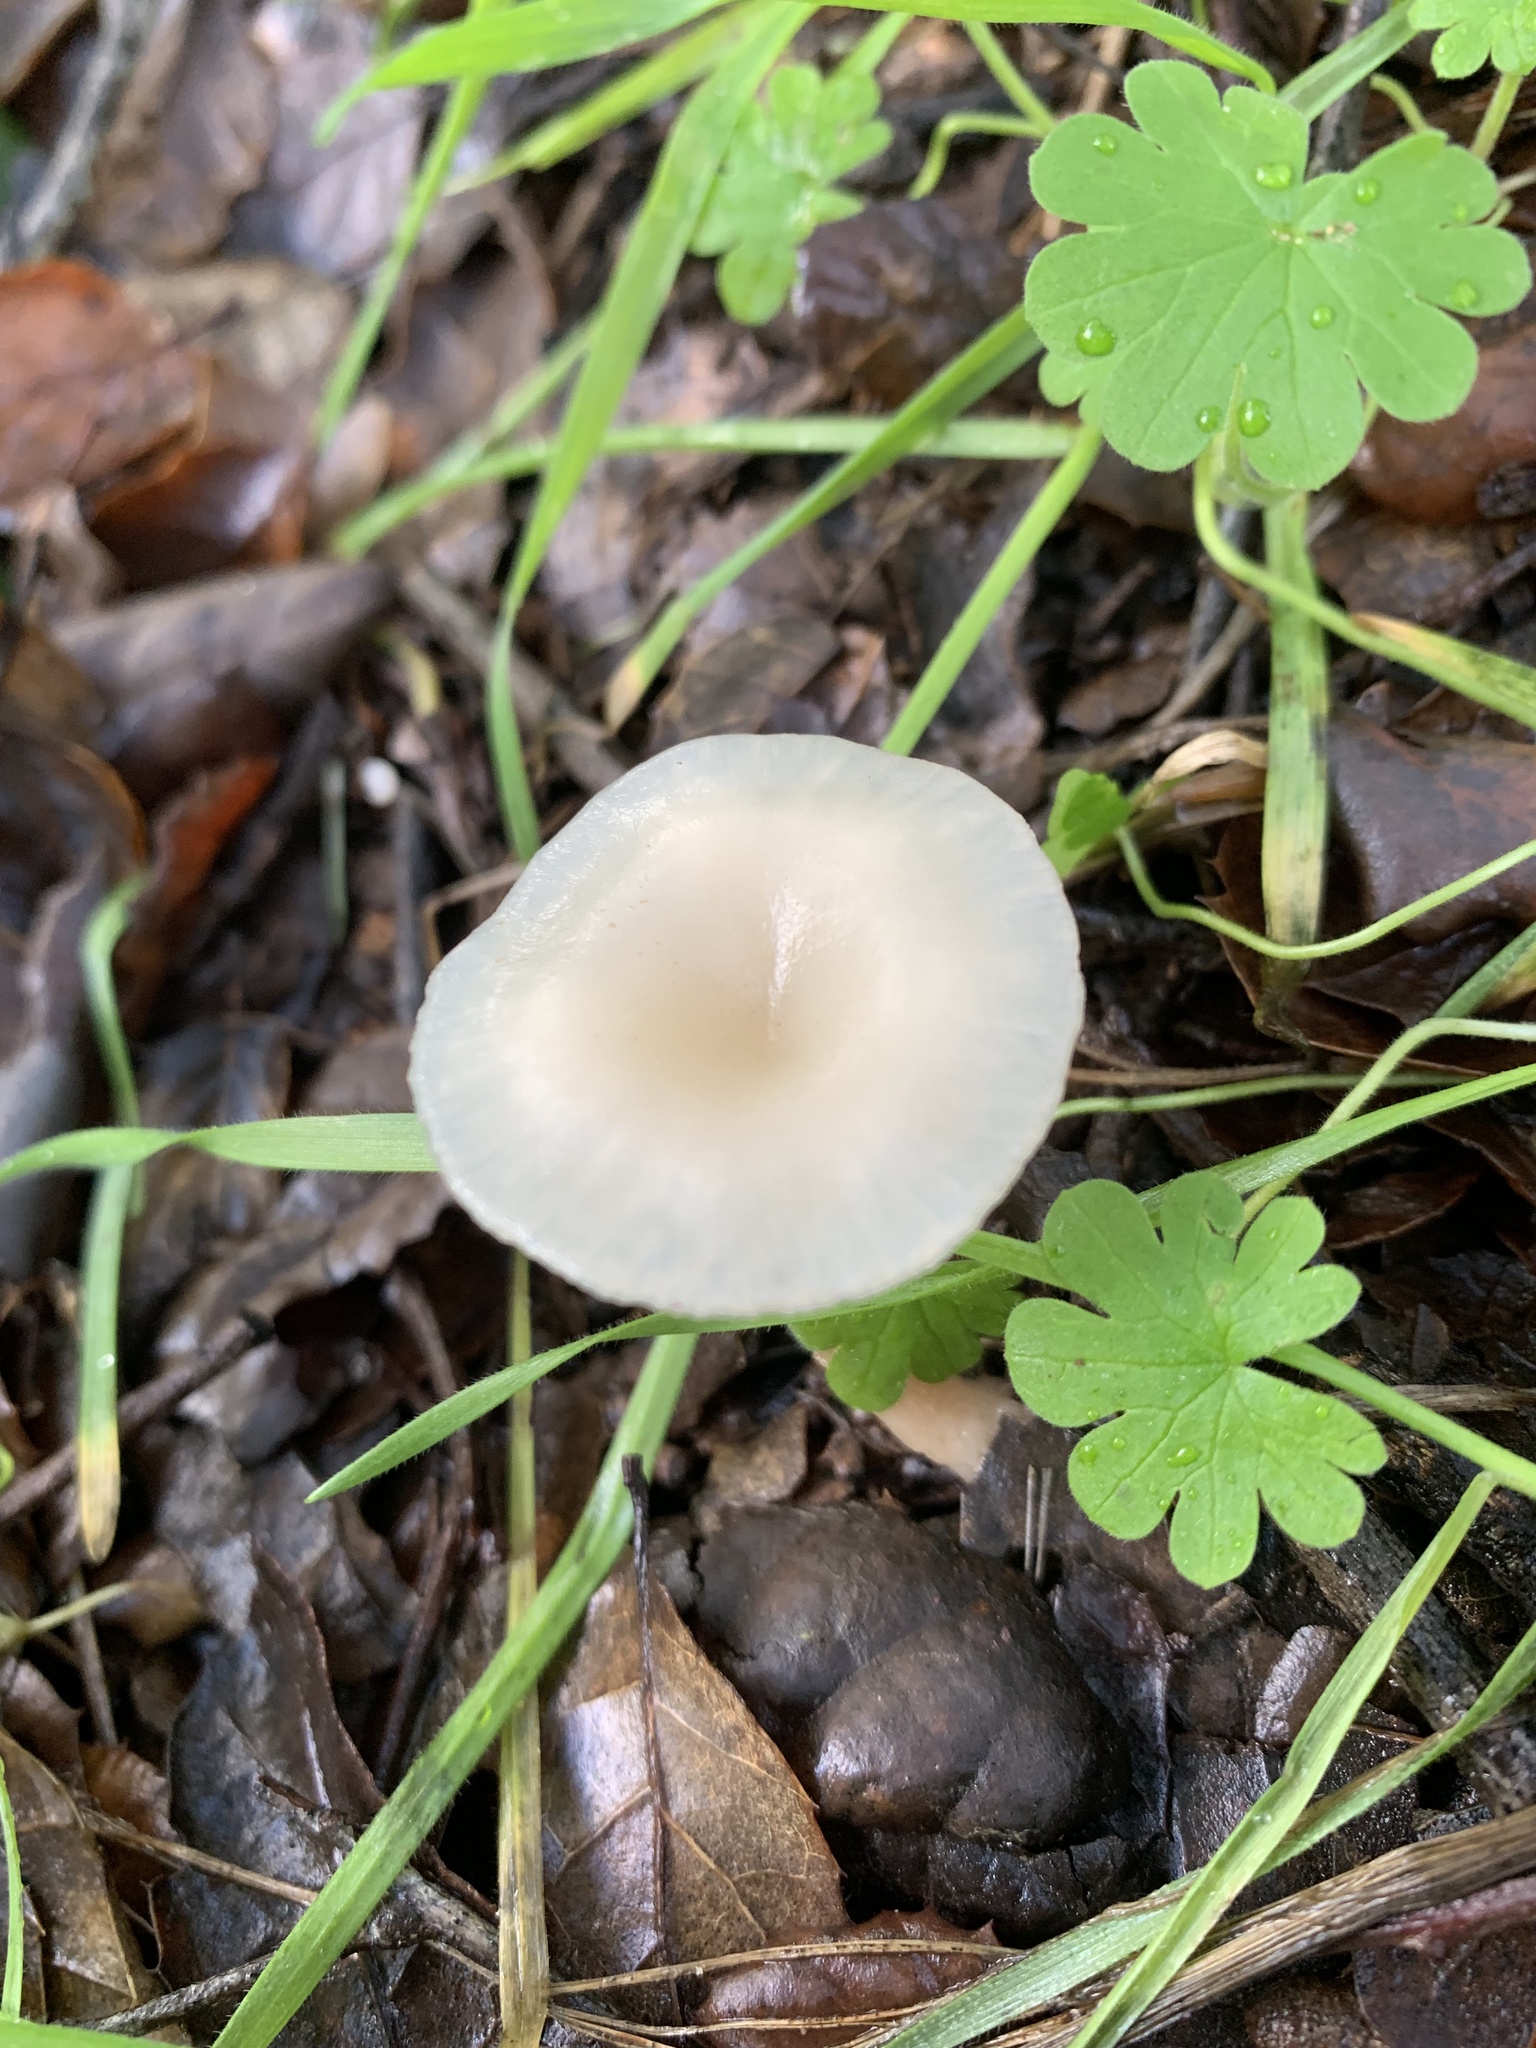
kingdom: Fungi
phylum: Basidiomycota
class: Agaricomycetes
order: Agaricales
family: Tricholomataceae
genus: Clitocybe
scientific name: Clitocybe fragrans
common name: Fragrant funnel
